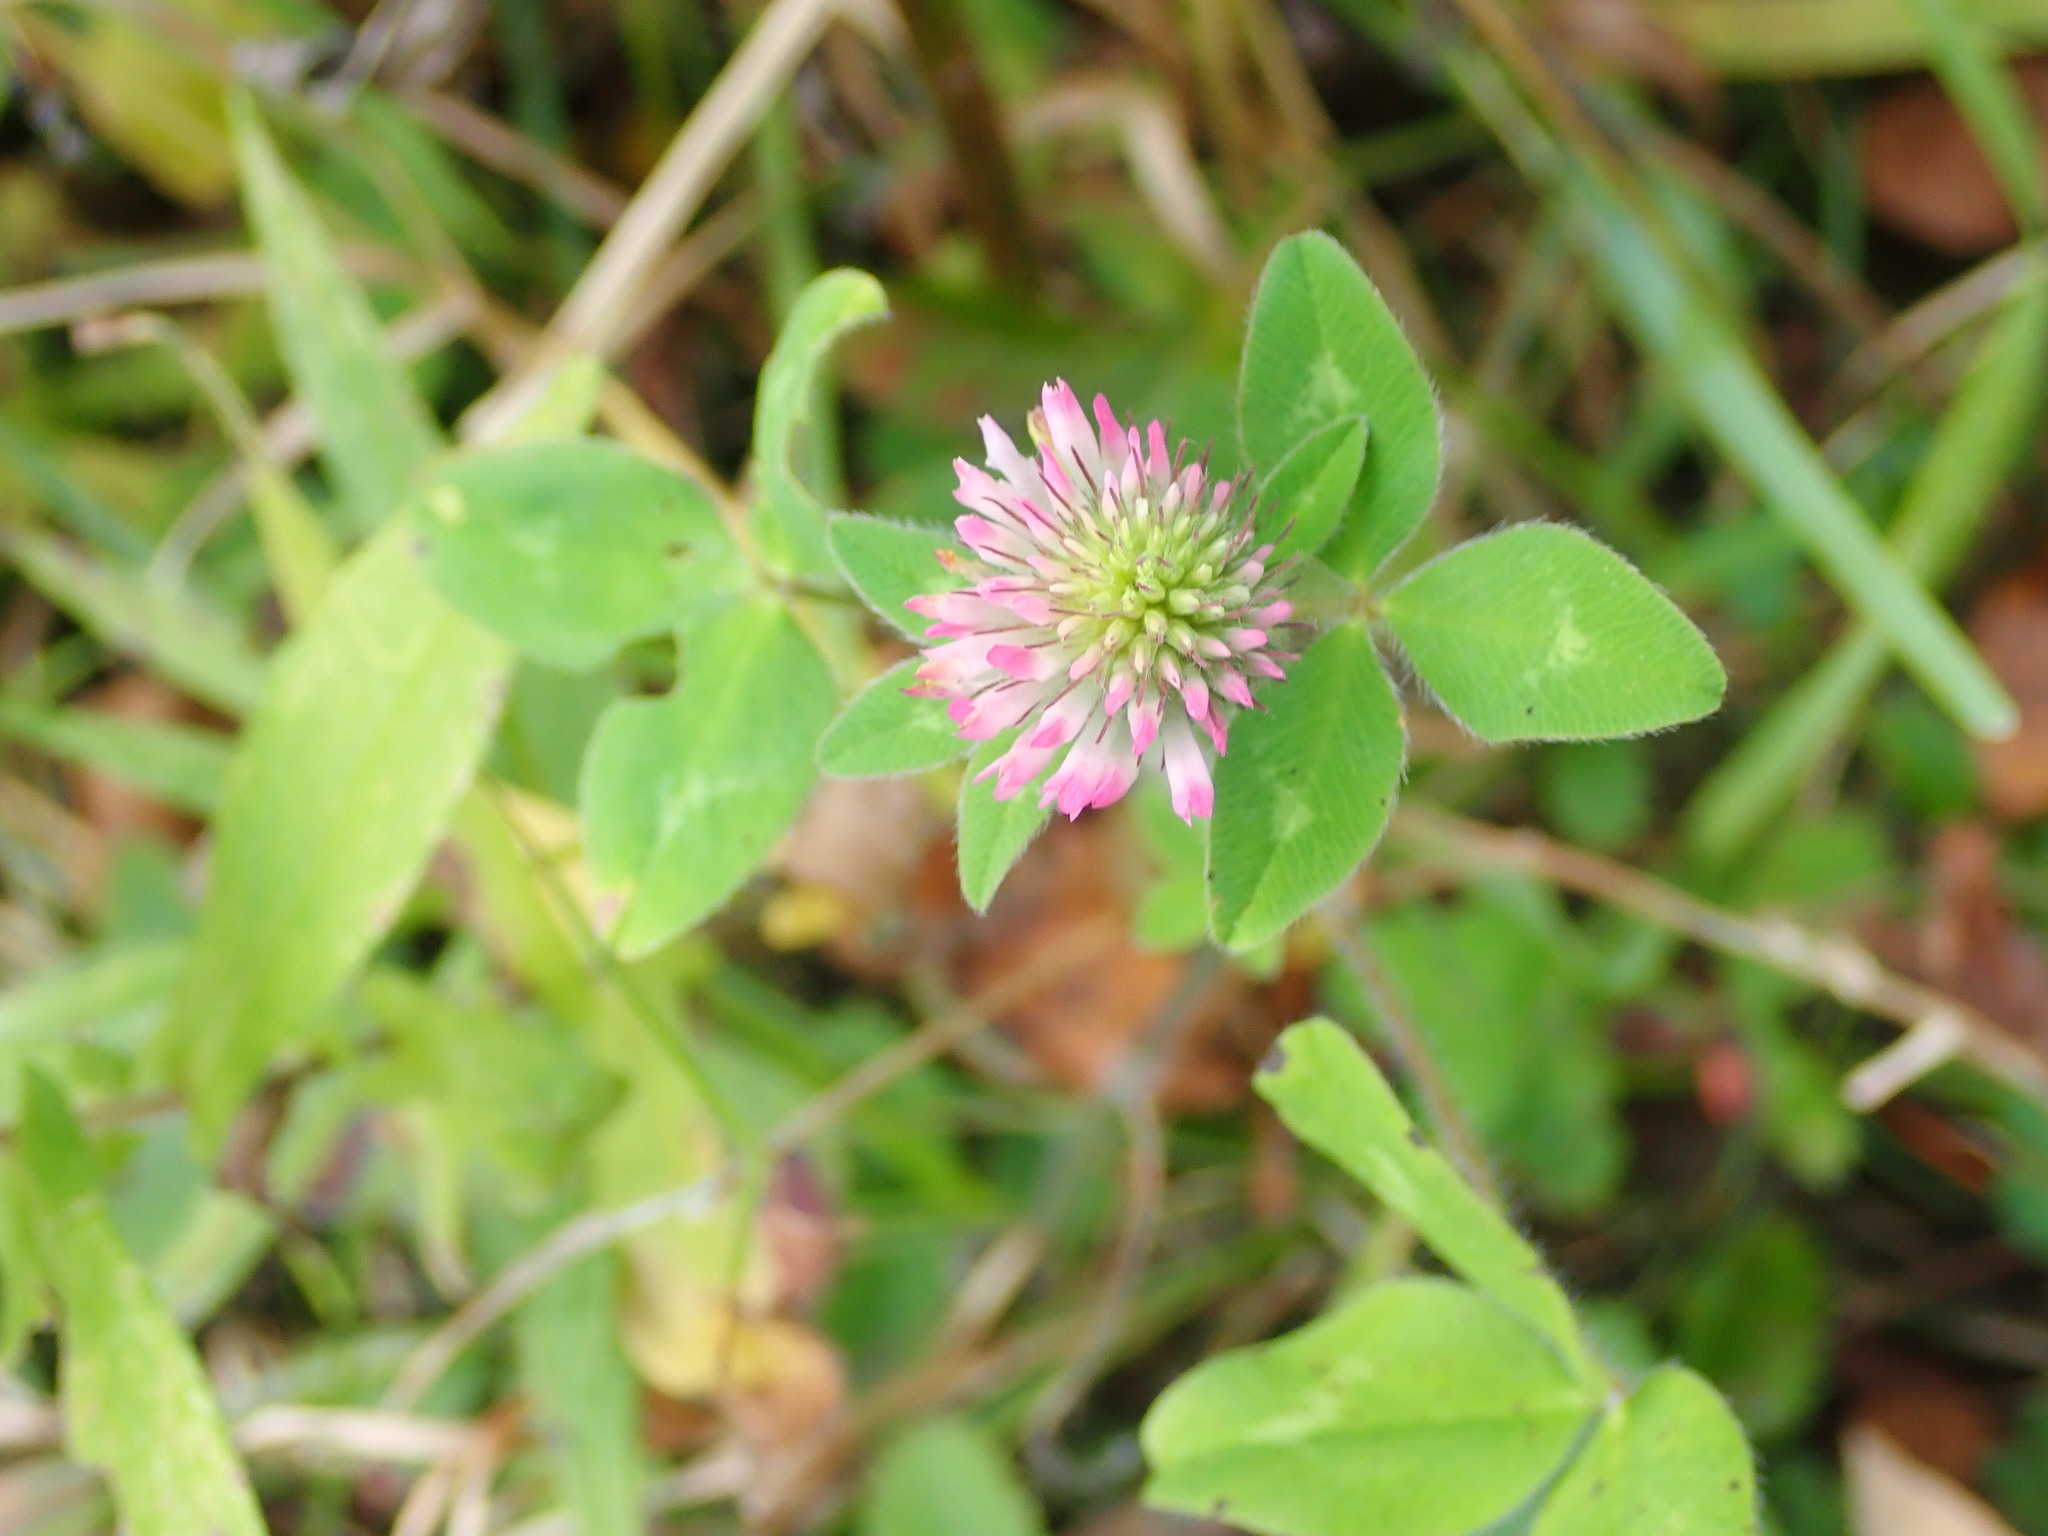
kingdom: Plantae
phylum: Tracheophyta
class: Magnoliopsida
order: Fabales
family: Fabaceae
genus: Trifolium
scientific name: Trifolium pratense
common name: Red clover
